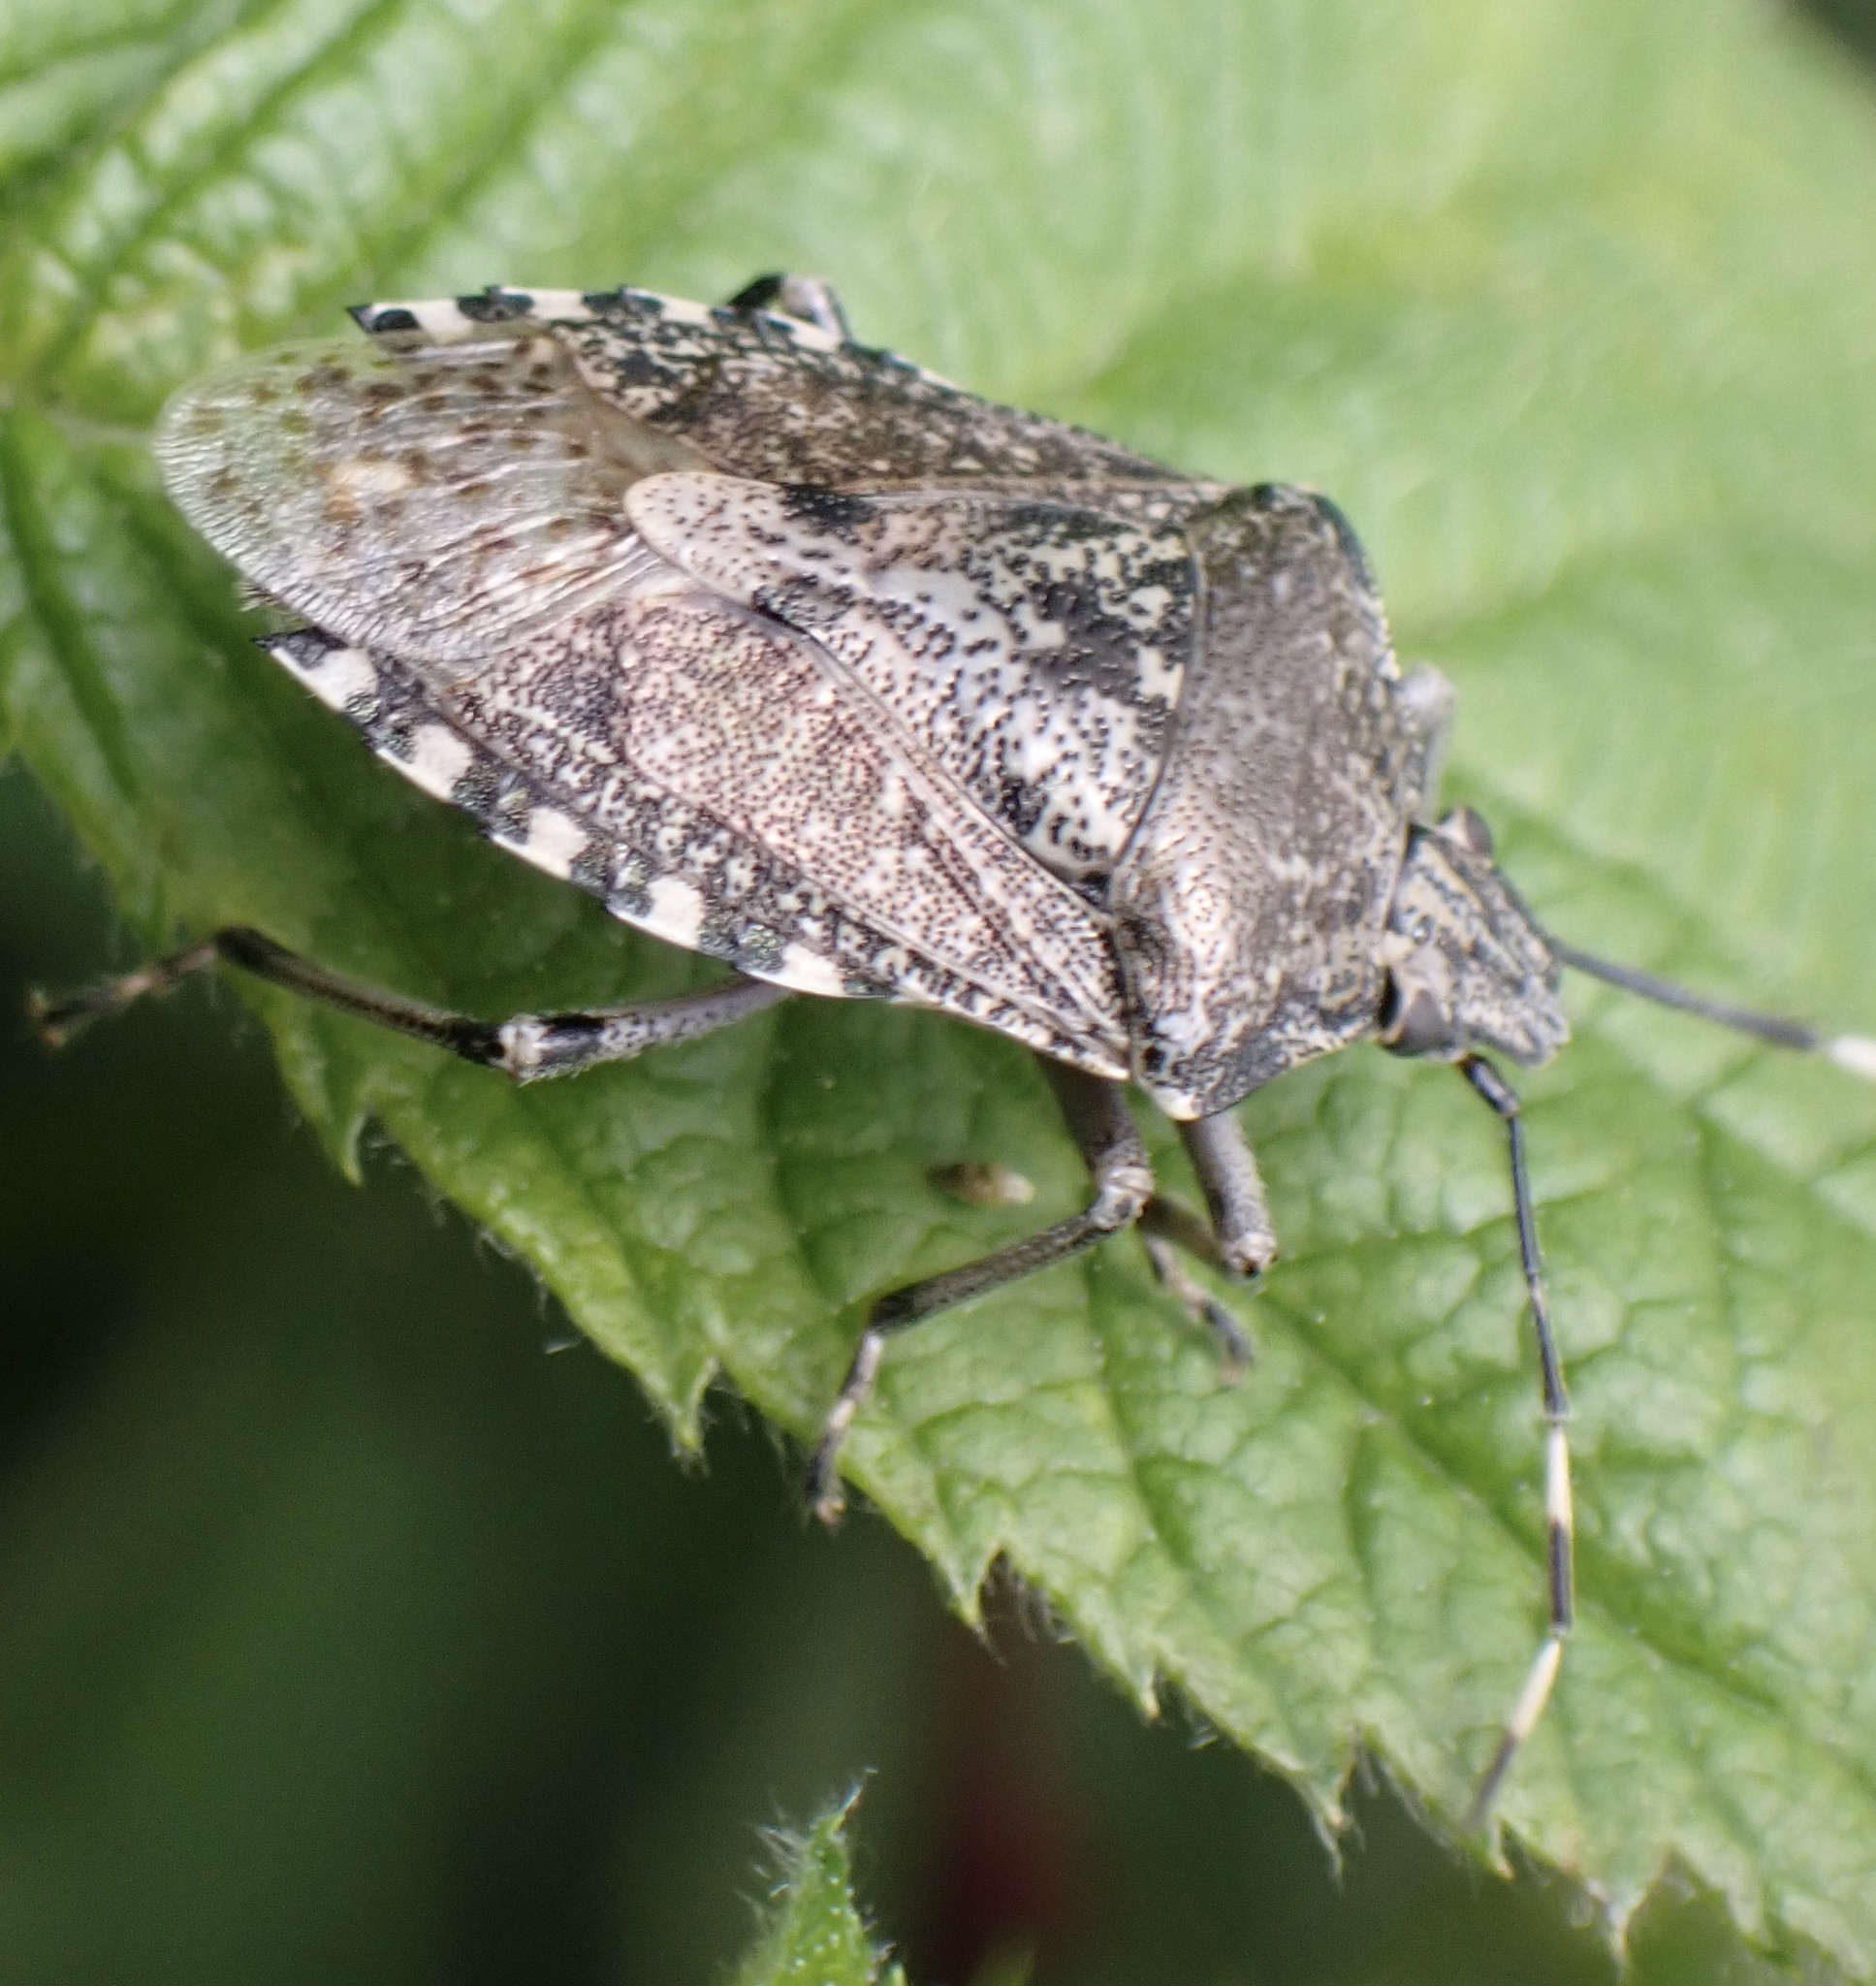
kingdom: Animalia
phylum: Arthropoda
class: Insecta
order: Hemiptera
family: Pentatomidae
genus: Rhaphigaster
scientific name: Rhaphigaster nebulosa
